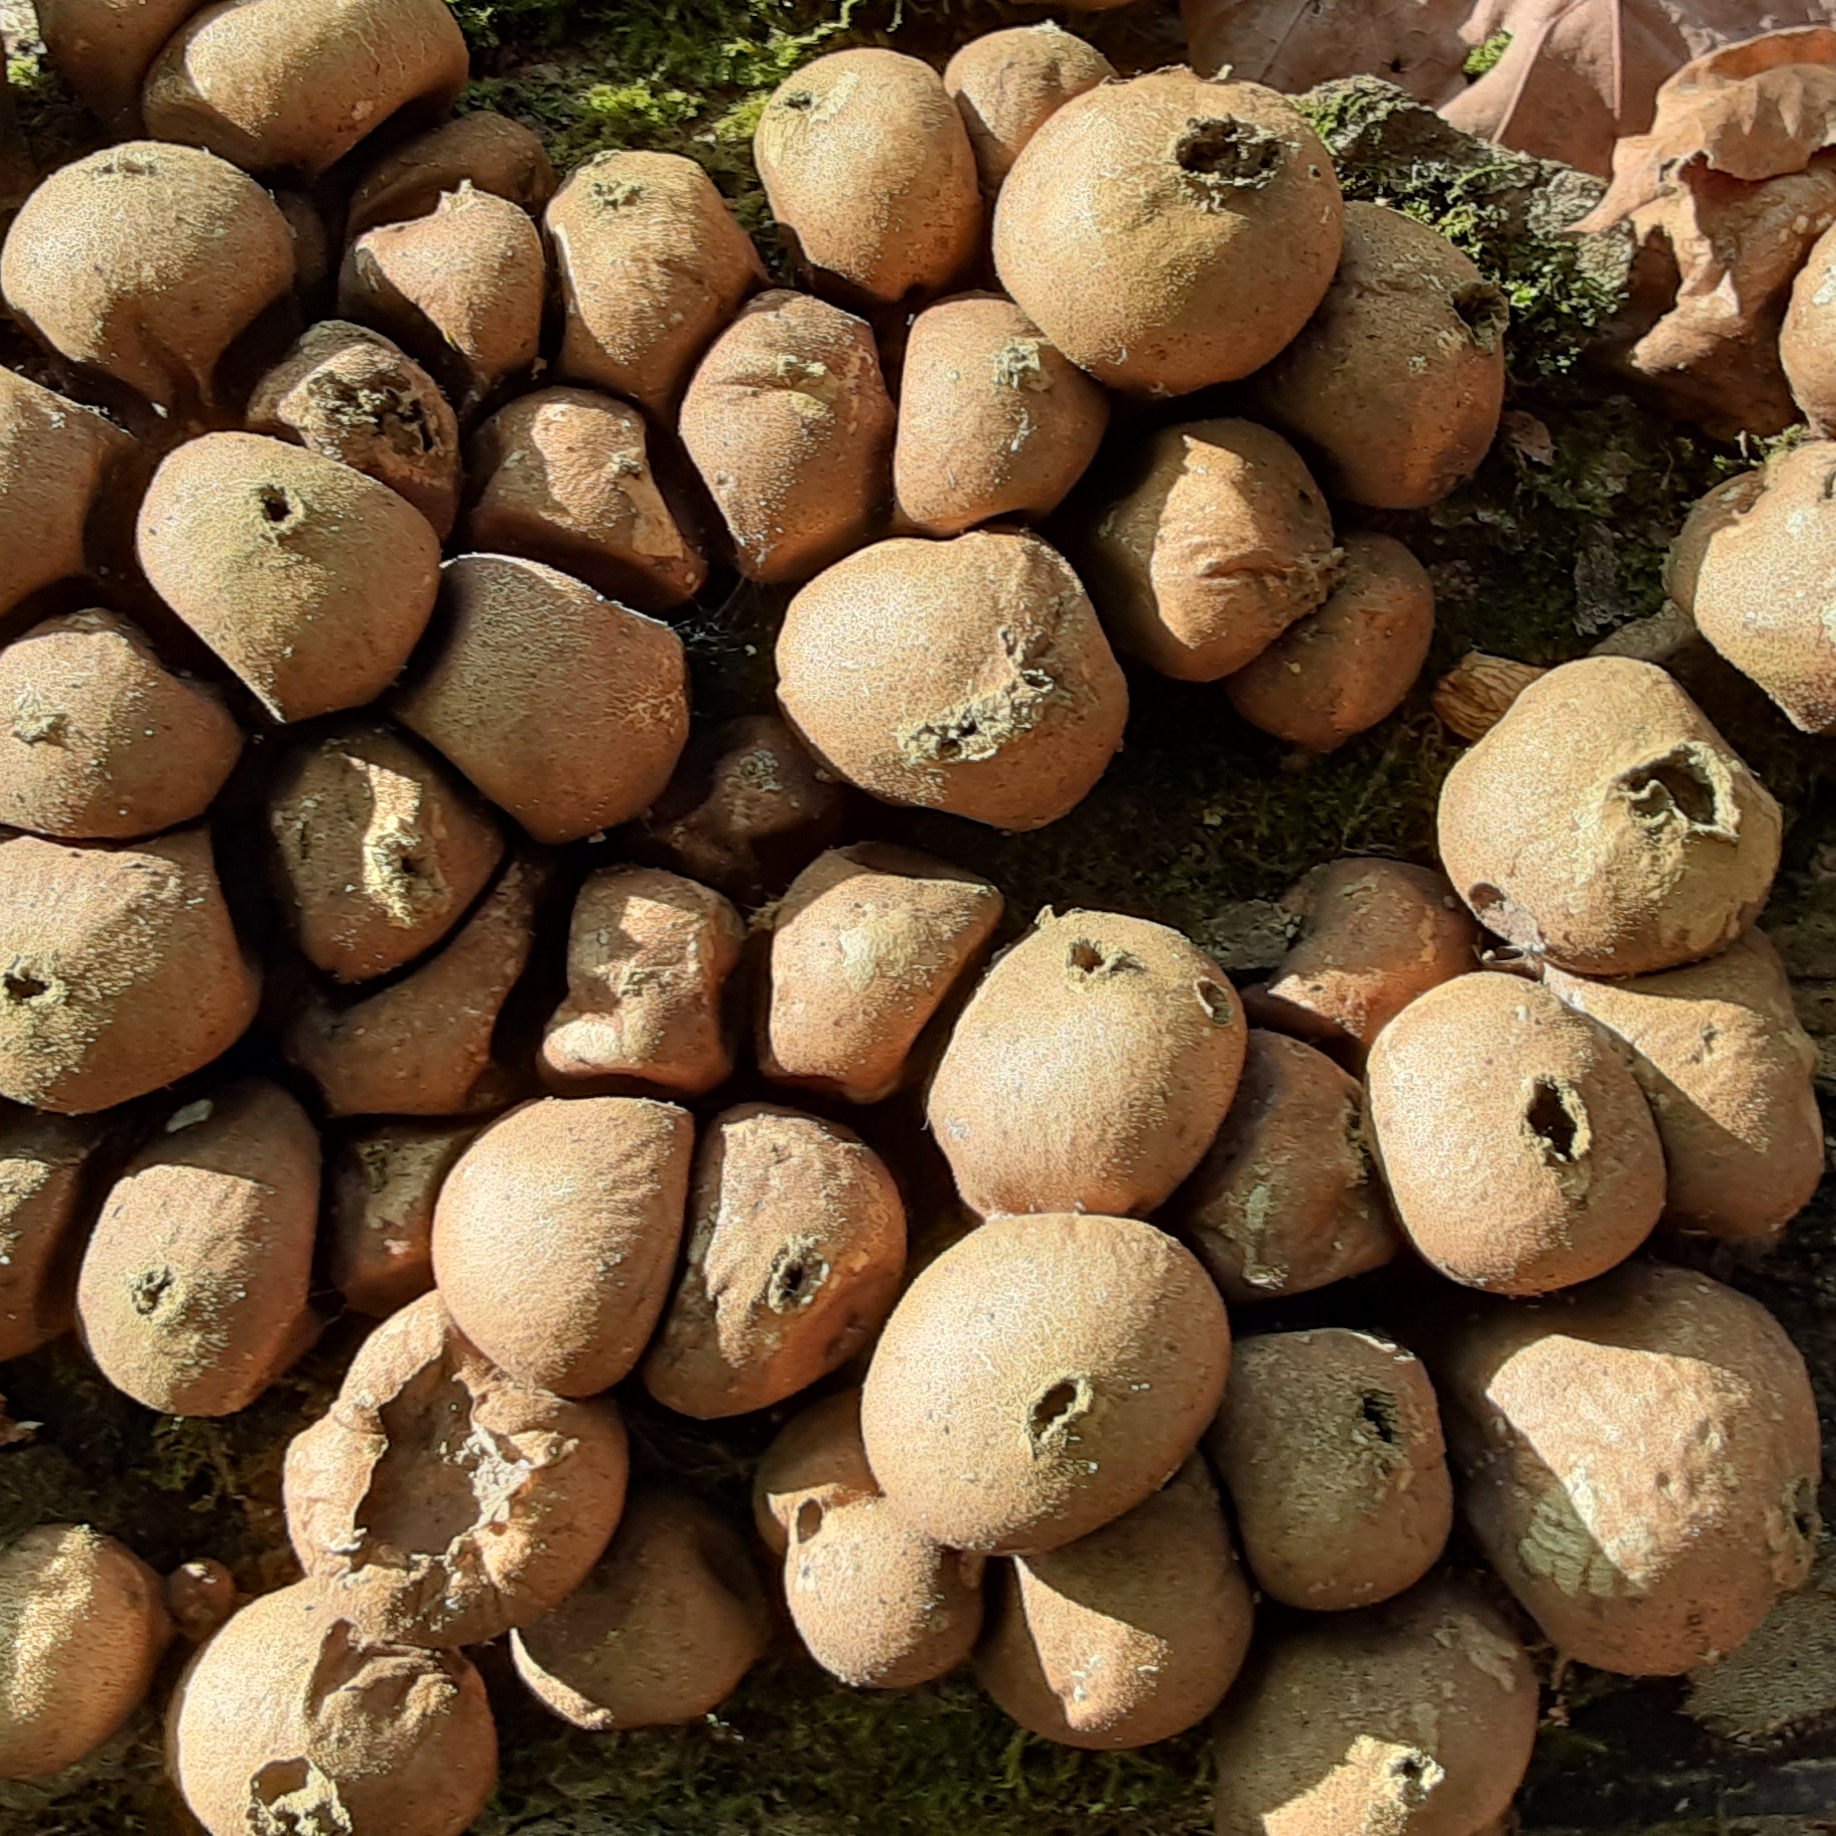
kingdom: Fungi
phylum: Basidiomycota
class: Agaricomycetes
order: Agaricales
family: Lycoperdaceae
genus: Apioperdon
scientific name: Apioperdon pyriforme
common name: Pear-shaped puffball
